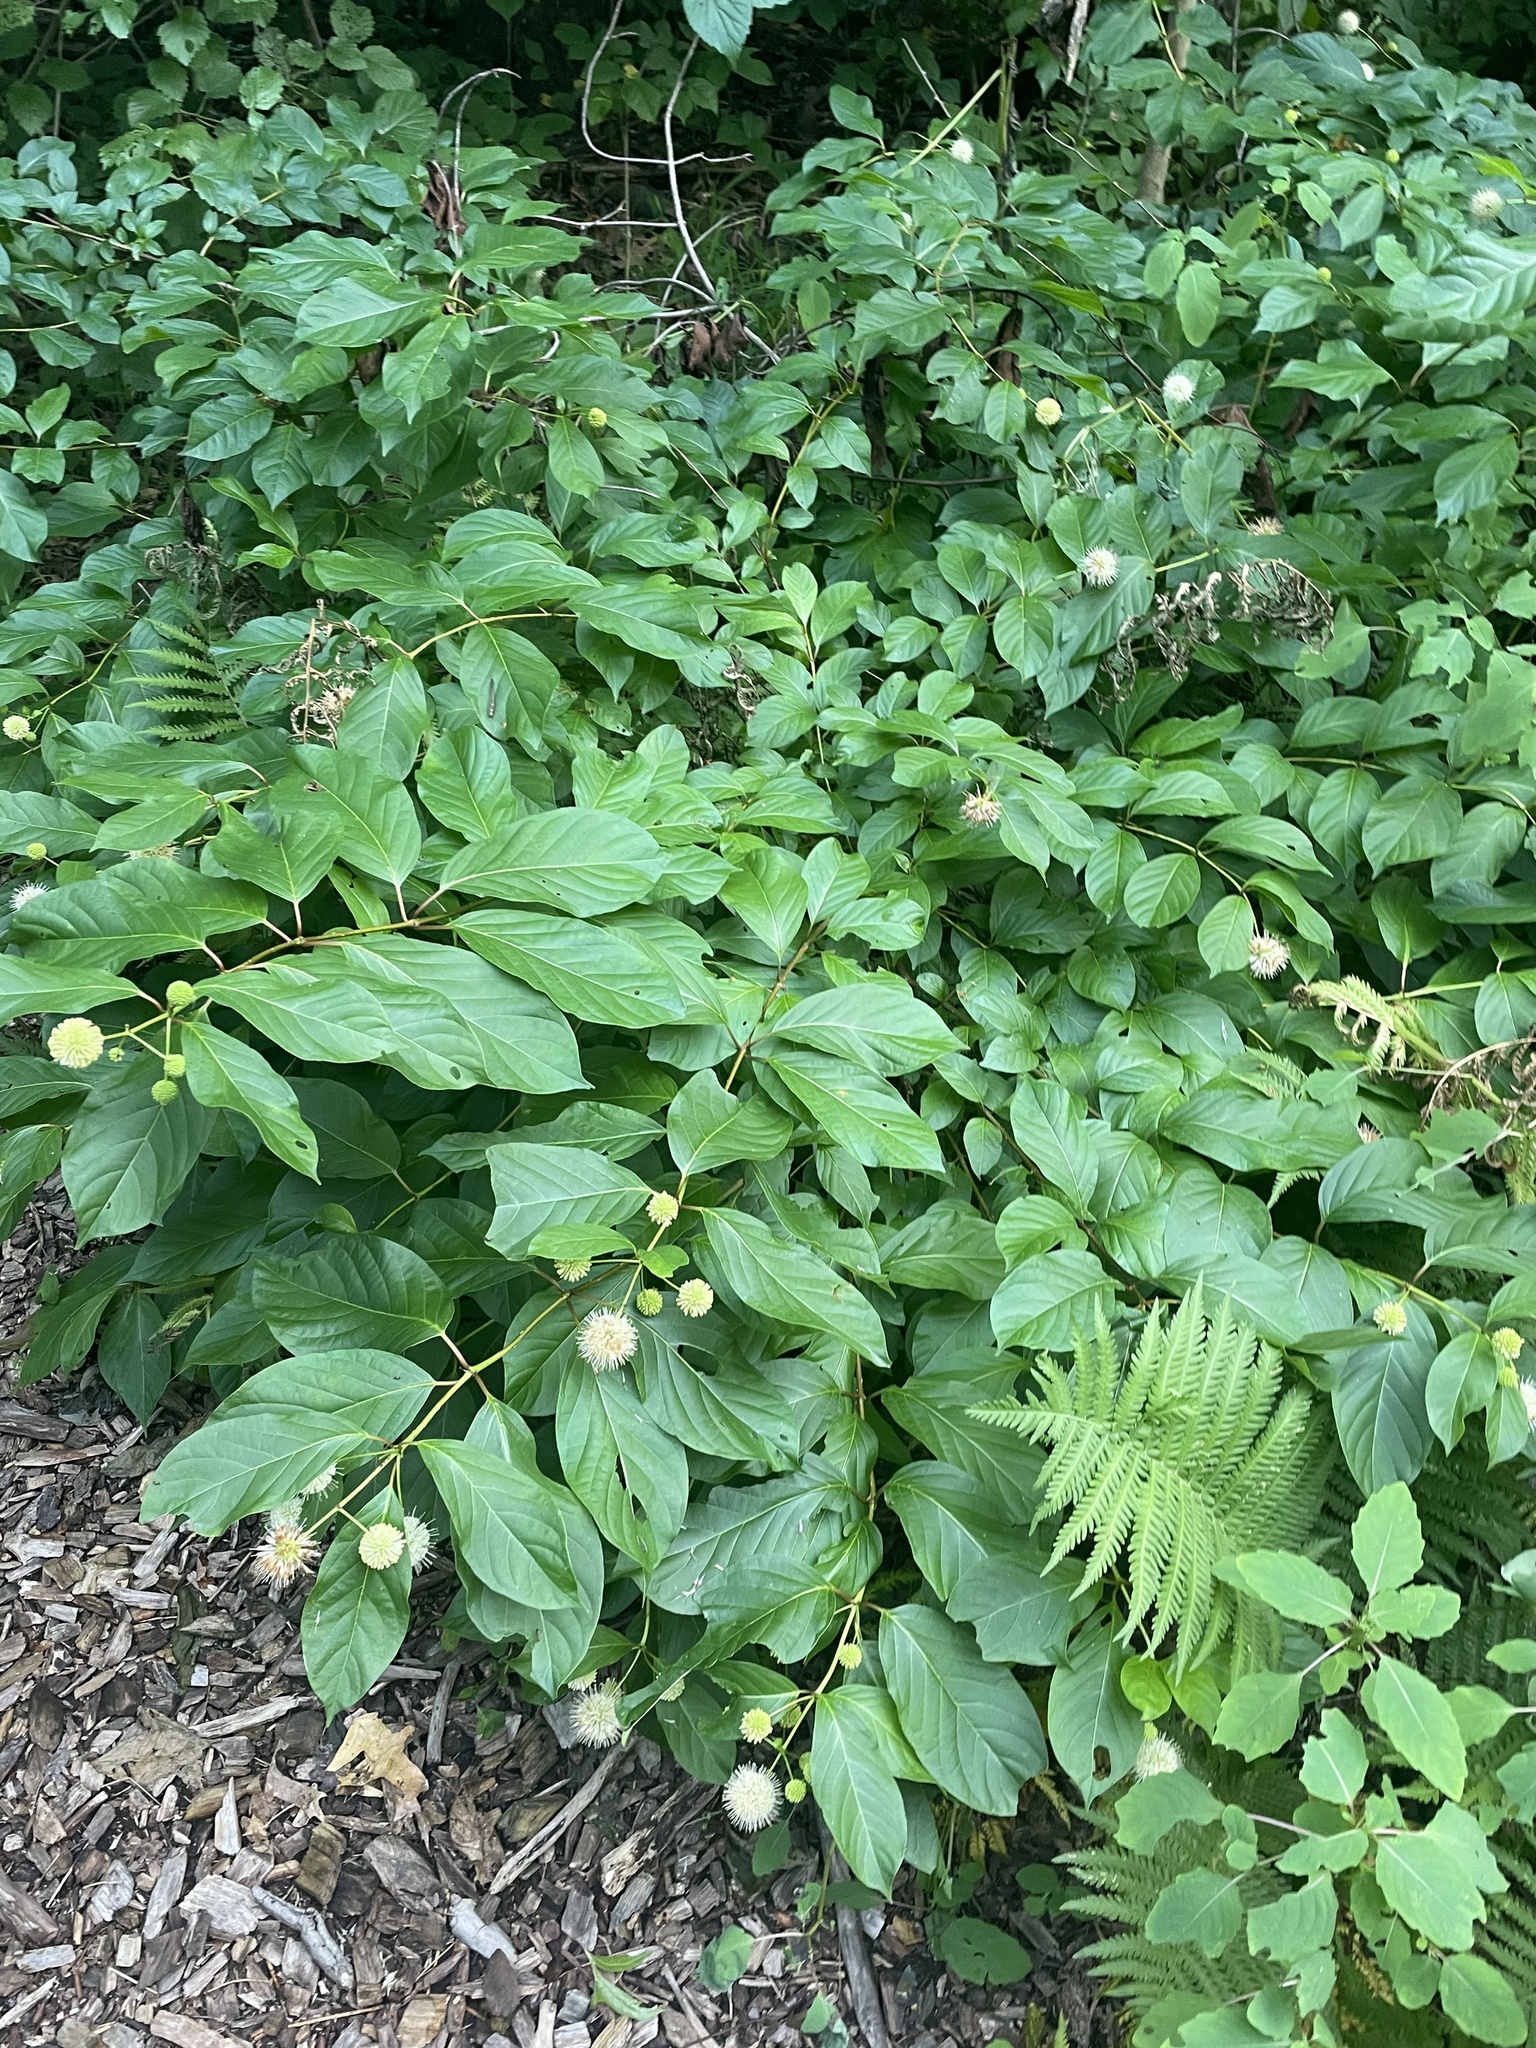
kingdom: Plantae
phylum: Tracheophyta
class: Magnoliopsida
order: Gentianales
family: Rubiaceae
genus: Cephalanthus
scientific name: Cephalanthus occidentalis
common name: Button-willow
